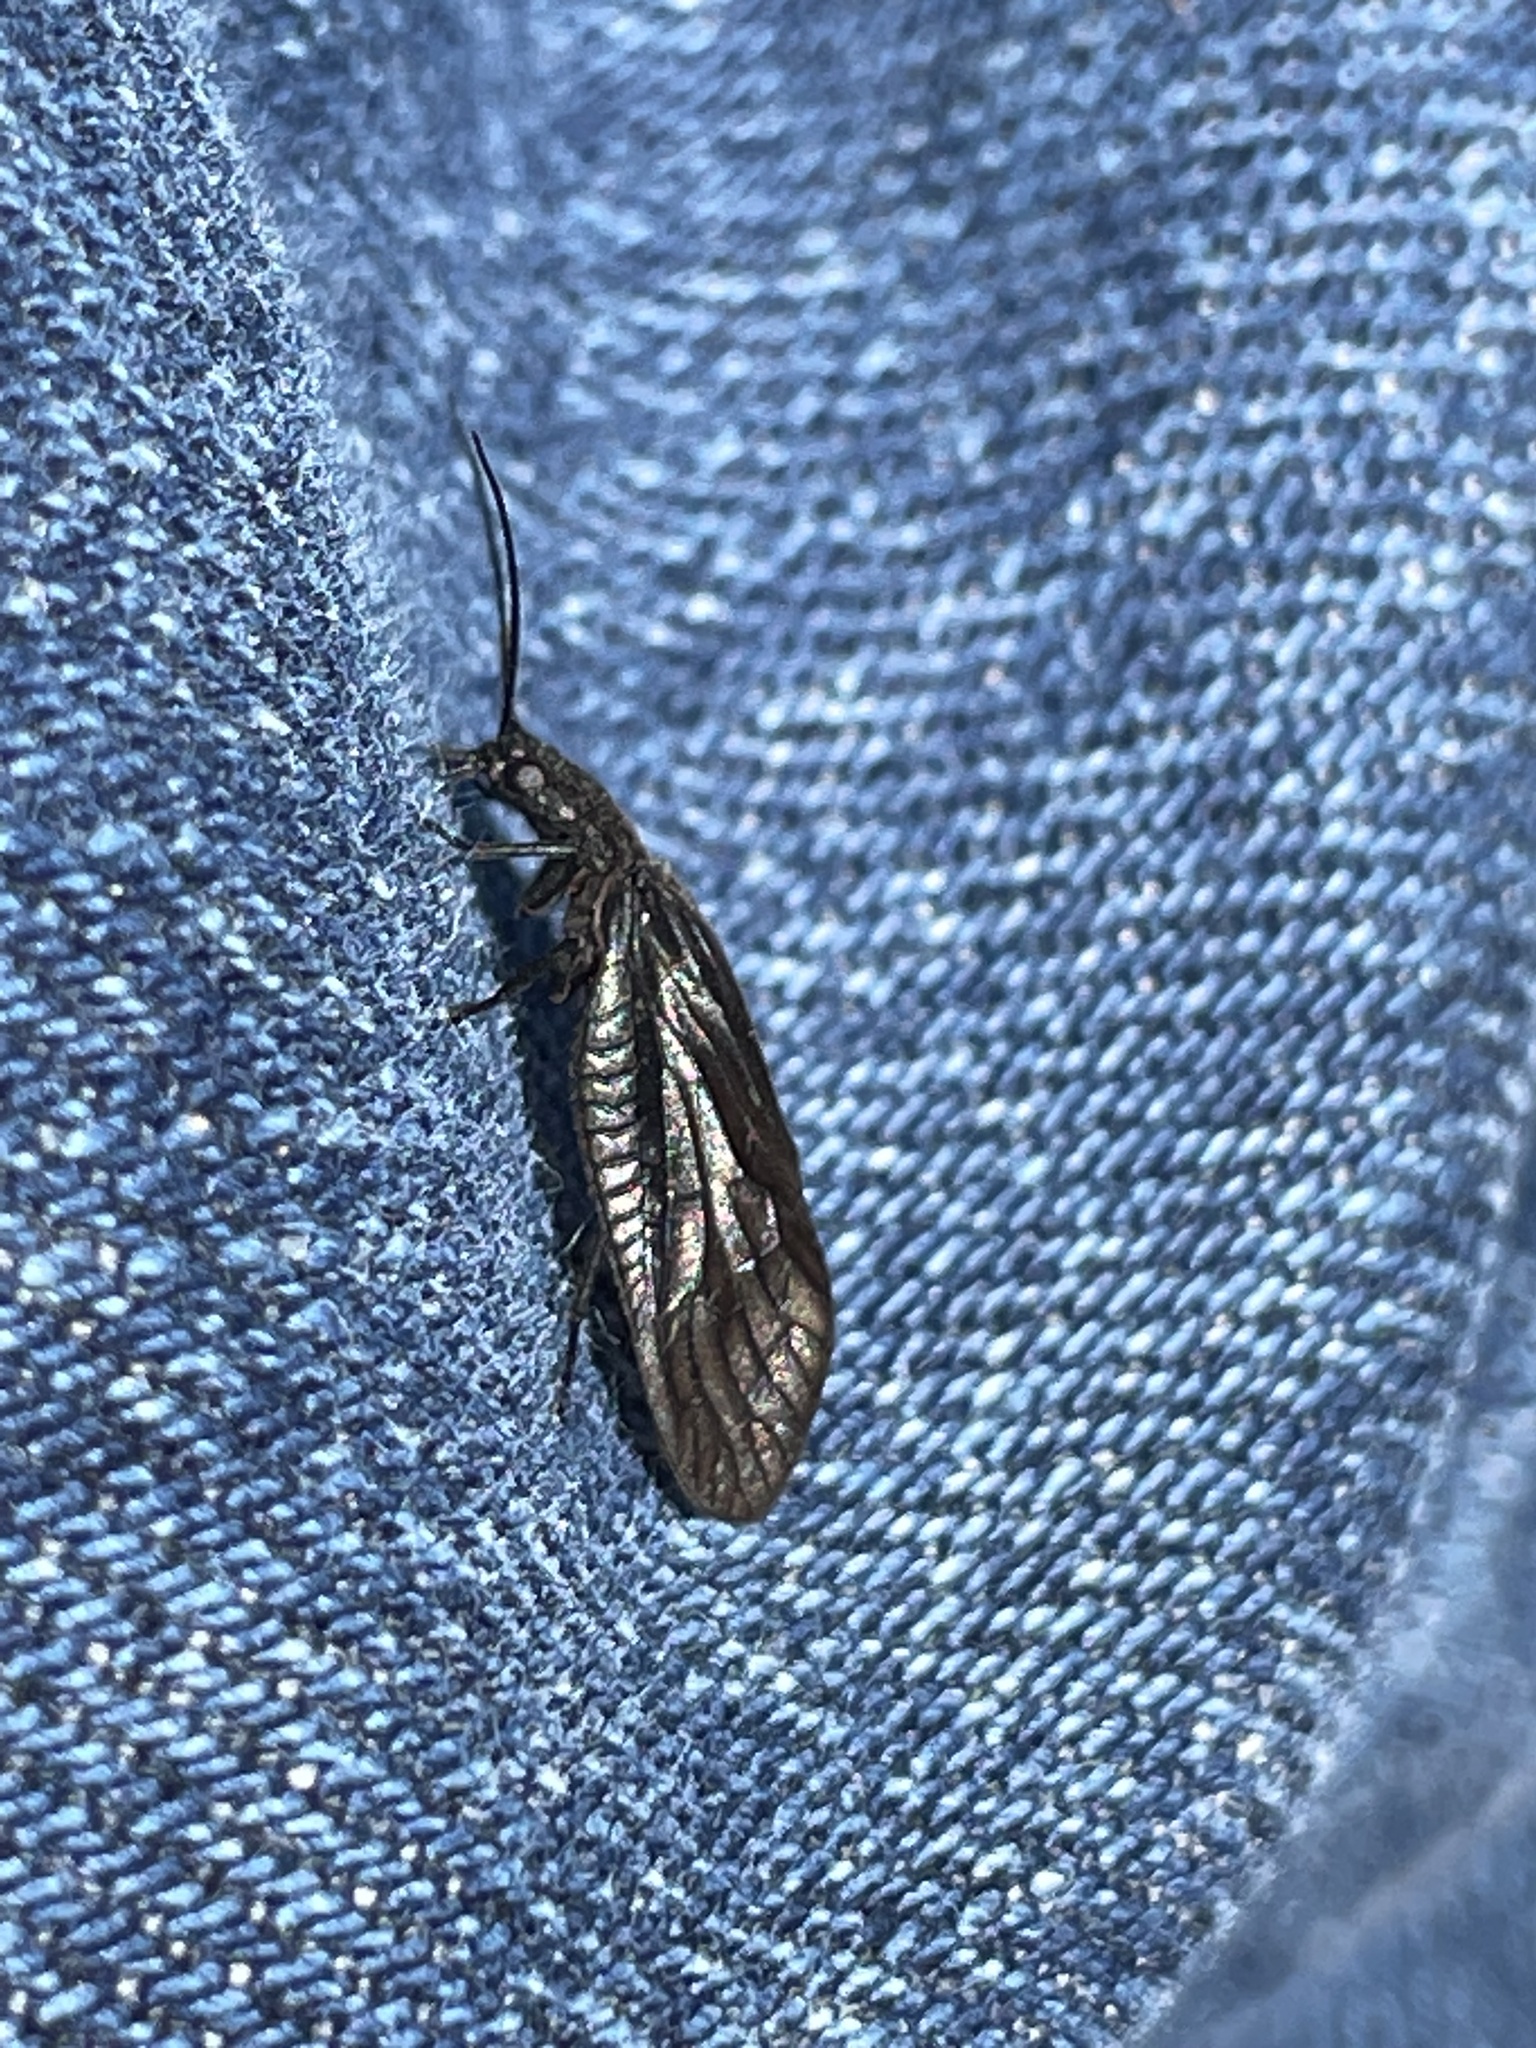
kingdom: Animalia
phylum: Arthropoda
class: Insecta
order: Megaloptera
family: Sialidae
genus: Sialis
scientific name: Sialis
